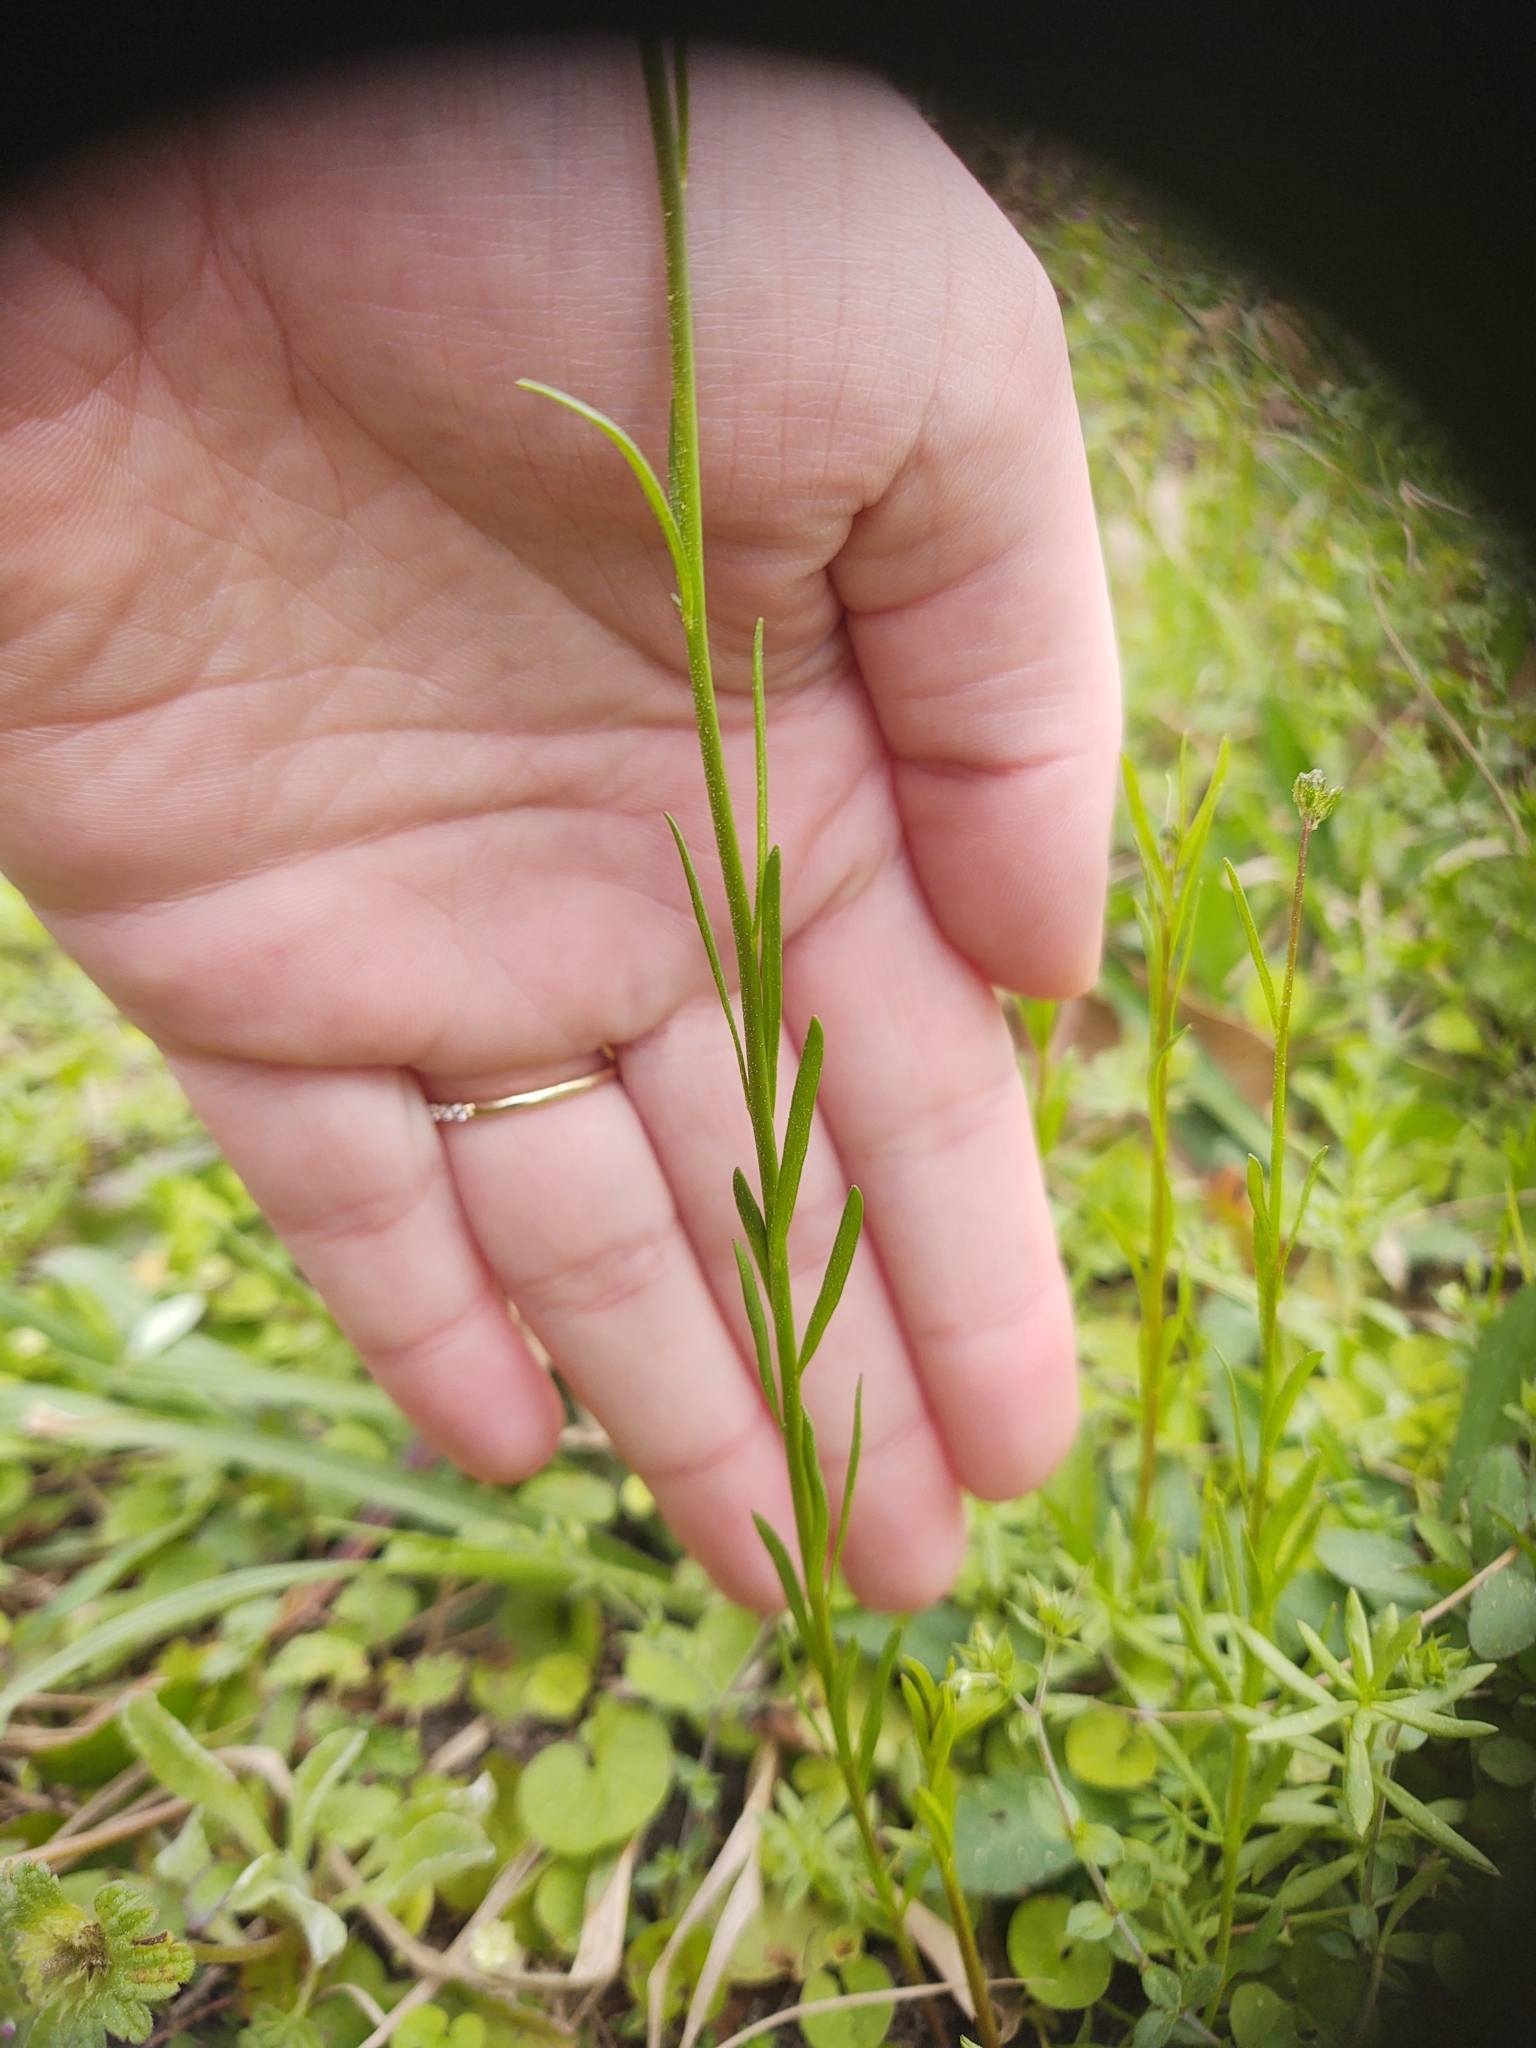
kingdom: Plantae
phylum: Tracheophyta
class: Magnoliopsida
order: Lamiales
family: Plantaginaceae
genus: Nuttallanthus
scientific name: Nuttallanthus canadensis
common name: Blue toadflax
